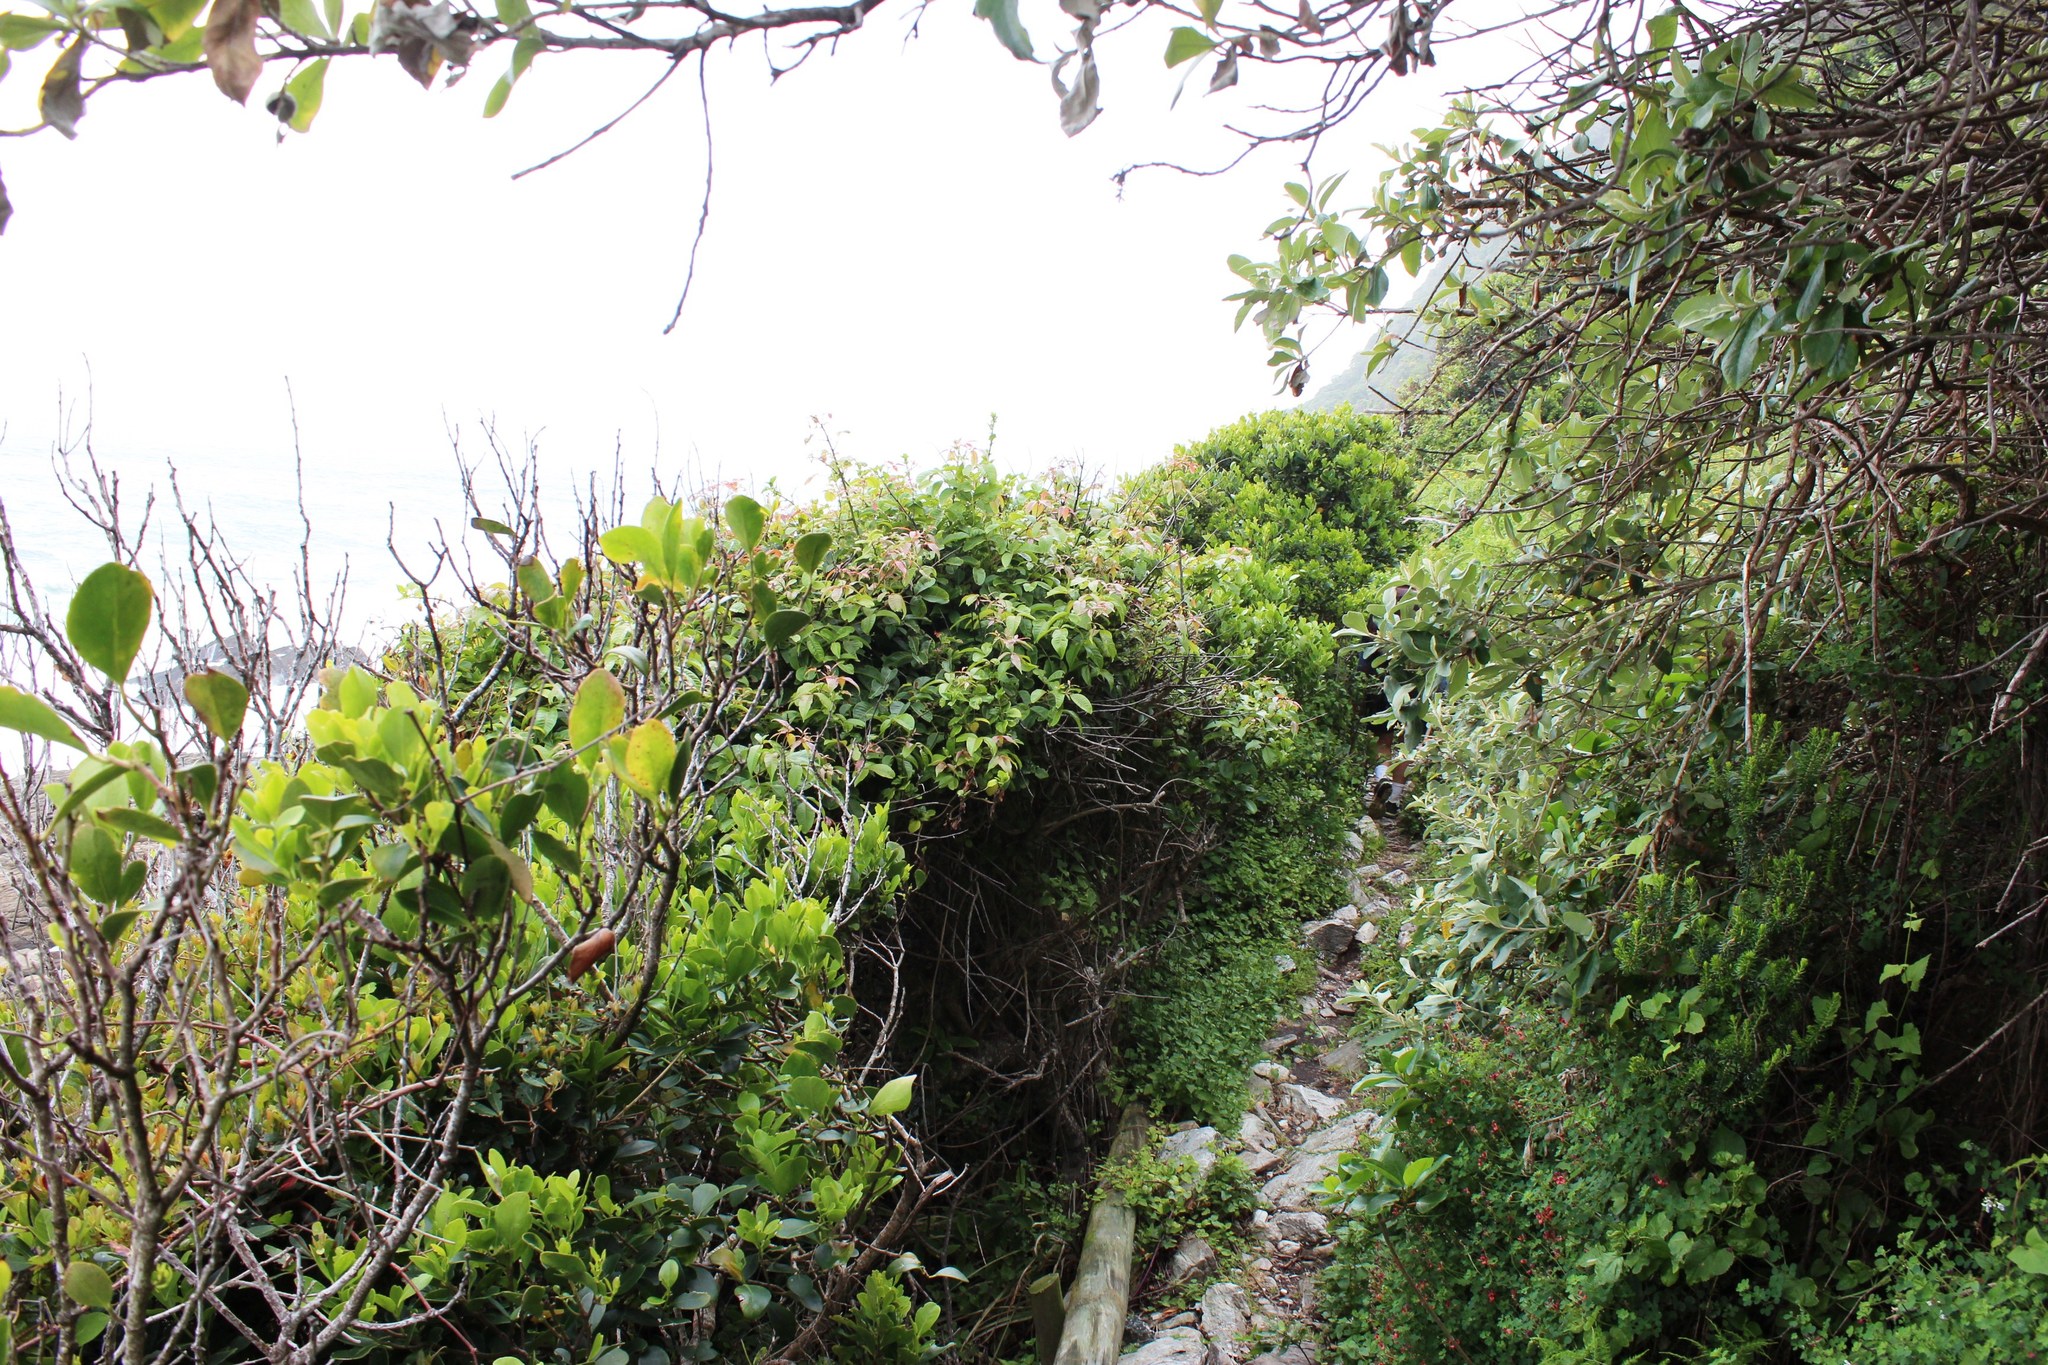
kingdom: Plantae
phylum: Tracheophyta
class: Magnoliopsida
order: Celastrales
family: Celastraceae
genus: Pterocelastrus
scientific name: Pterocelastrus tricuspidatus
